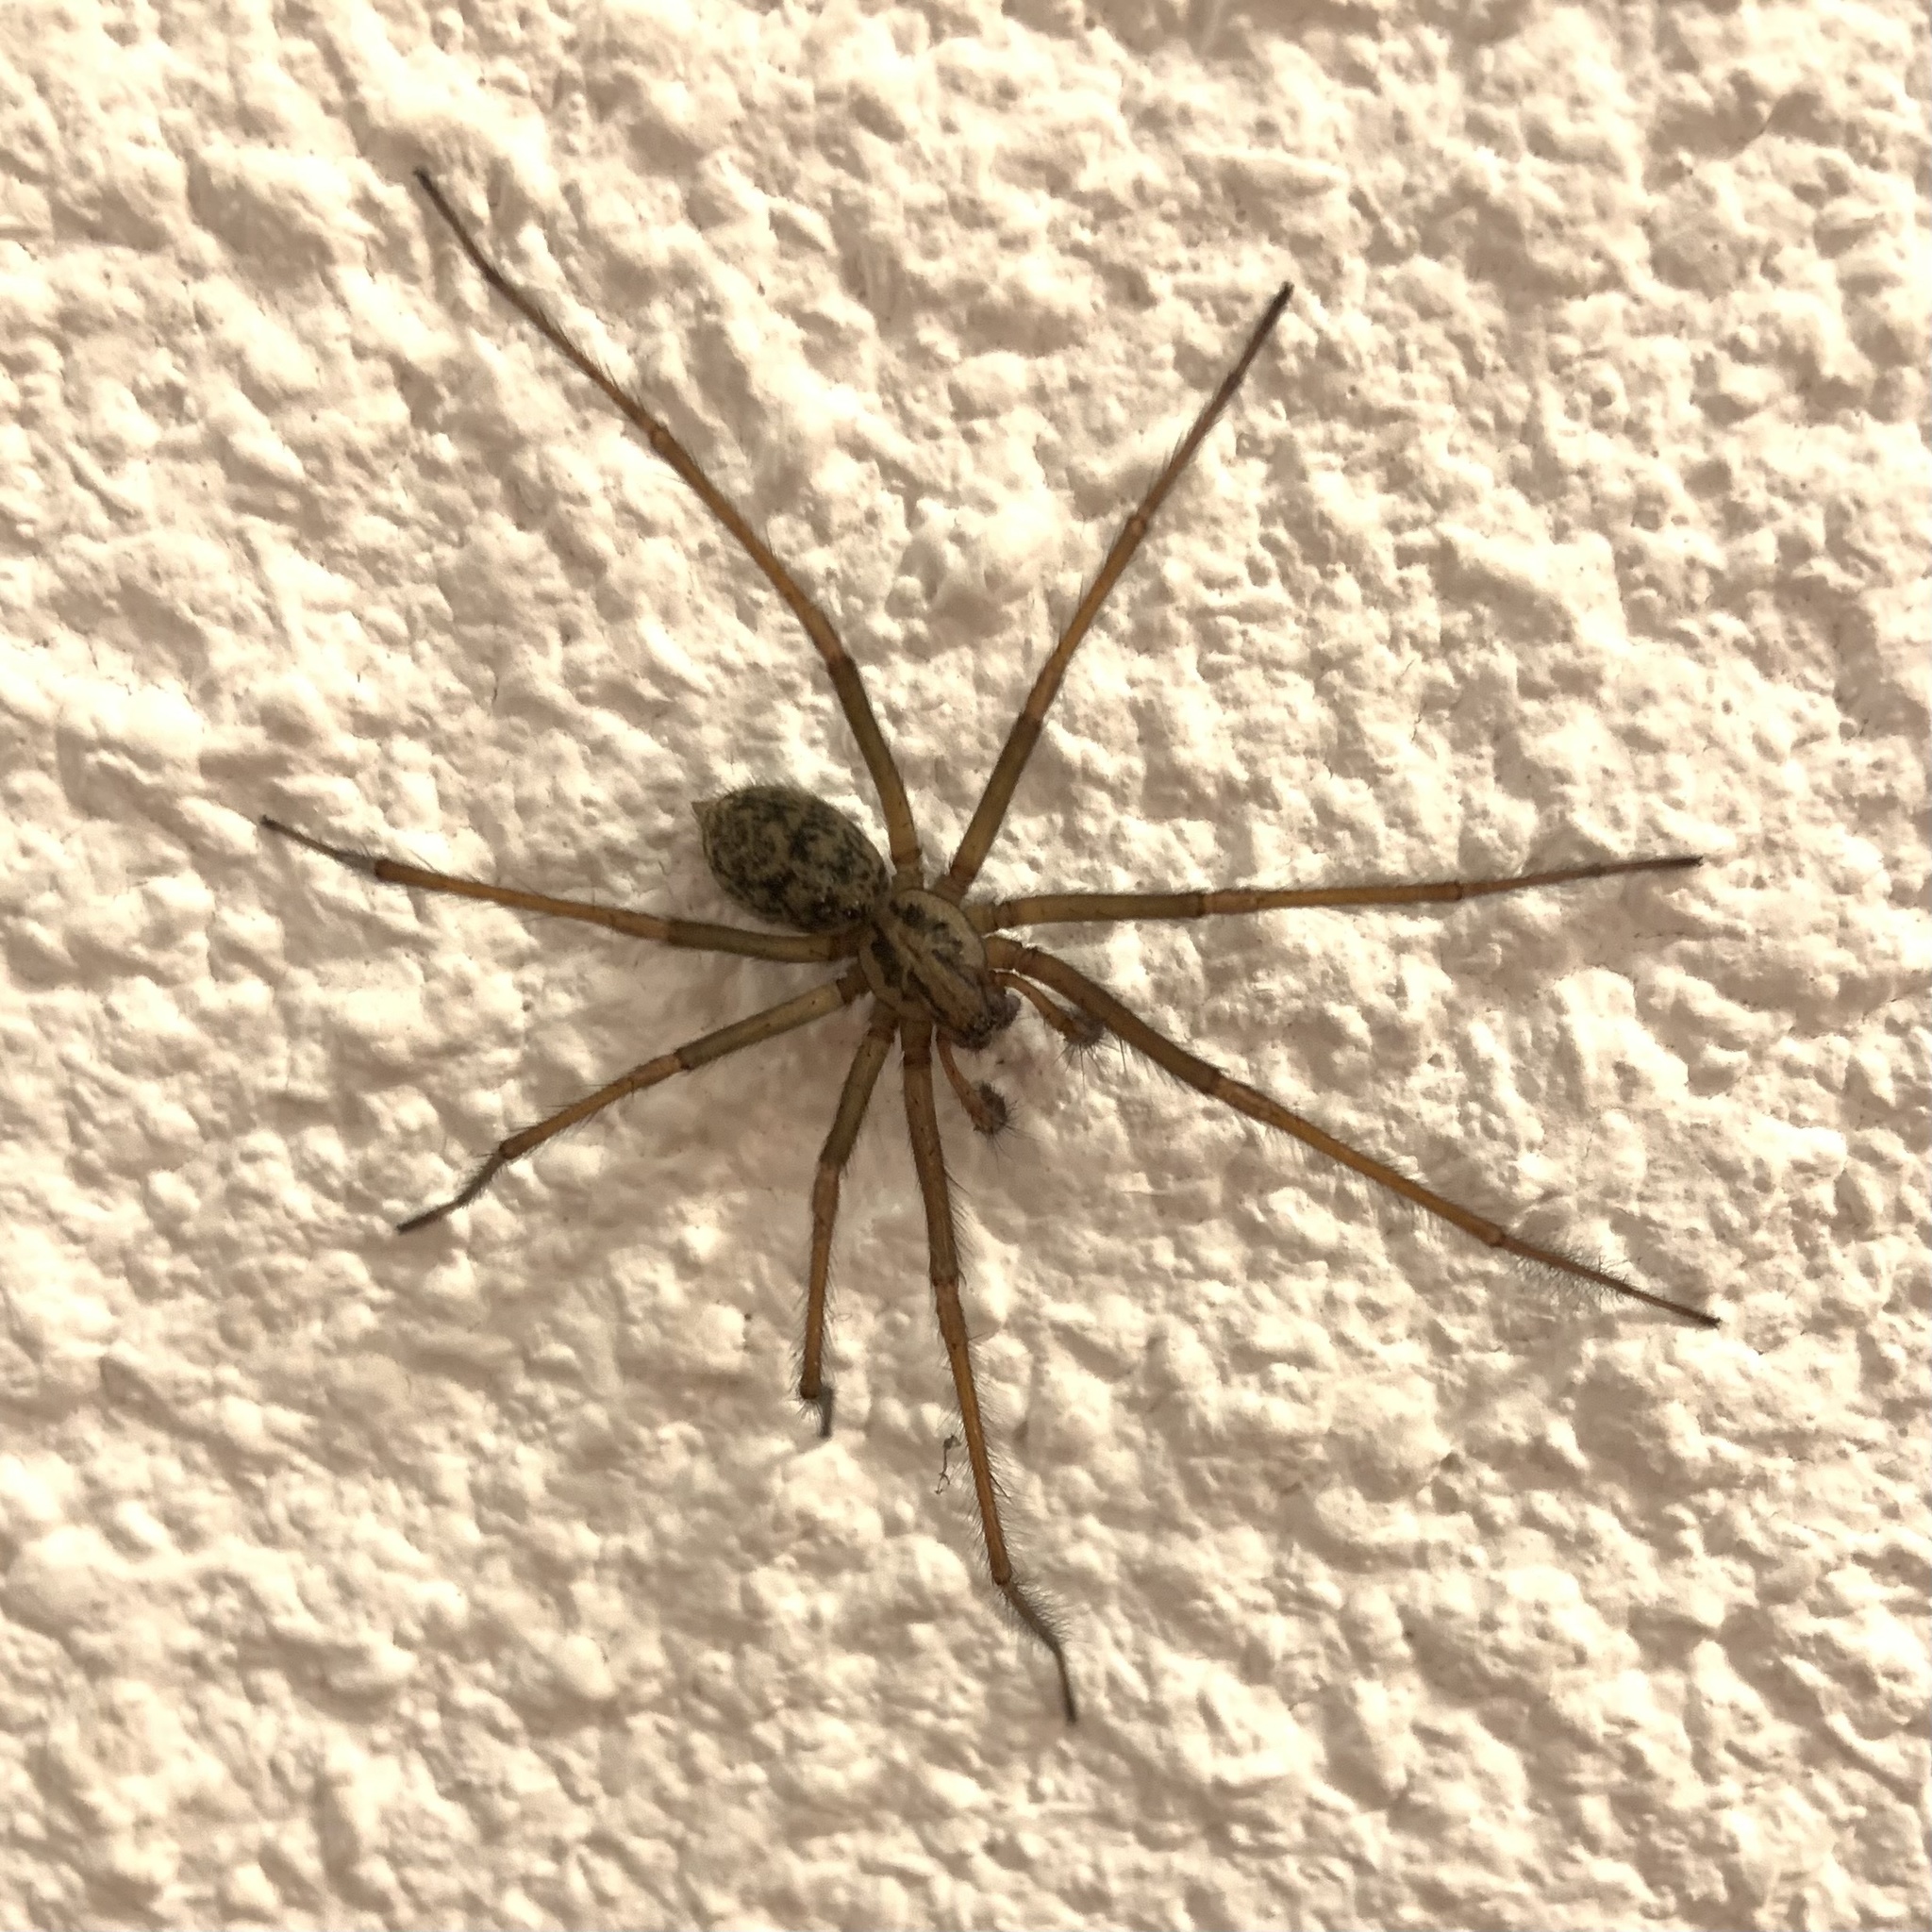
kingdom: Animalia
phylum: Arthropoda
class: Arachnida
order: Araneae
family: Agelenidae
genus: Eratigena
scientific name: Eratigena saeva
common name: House spider
